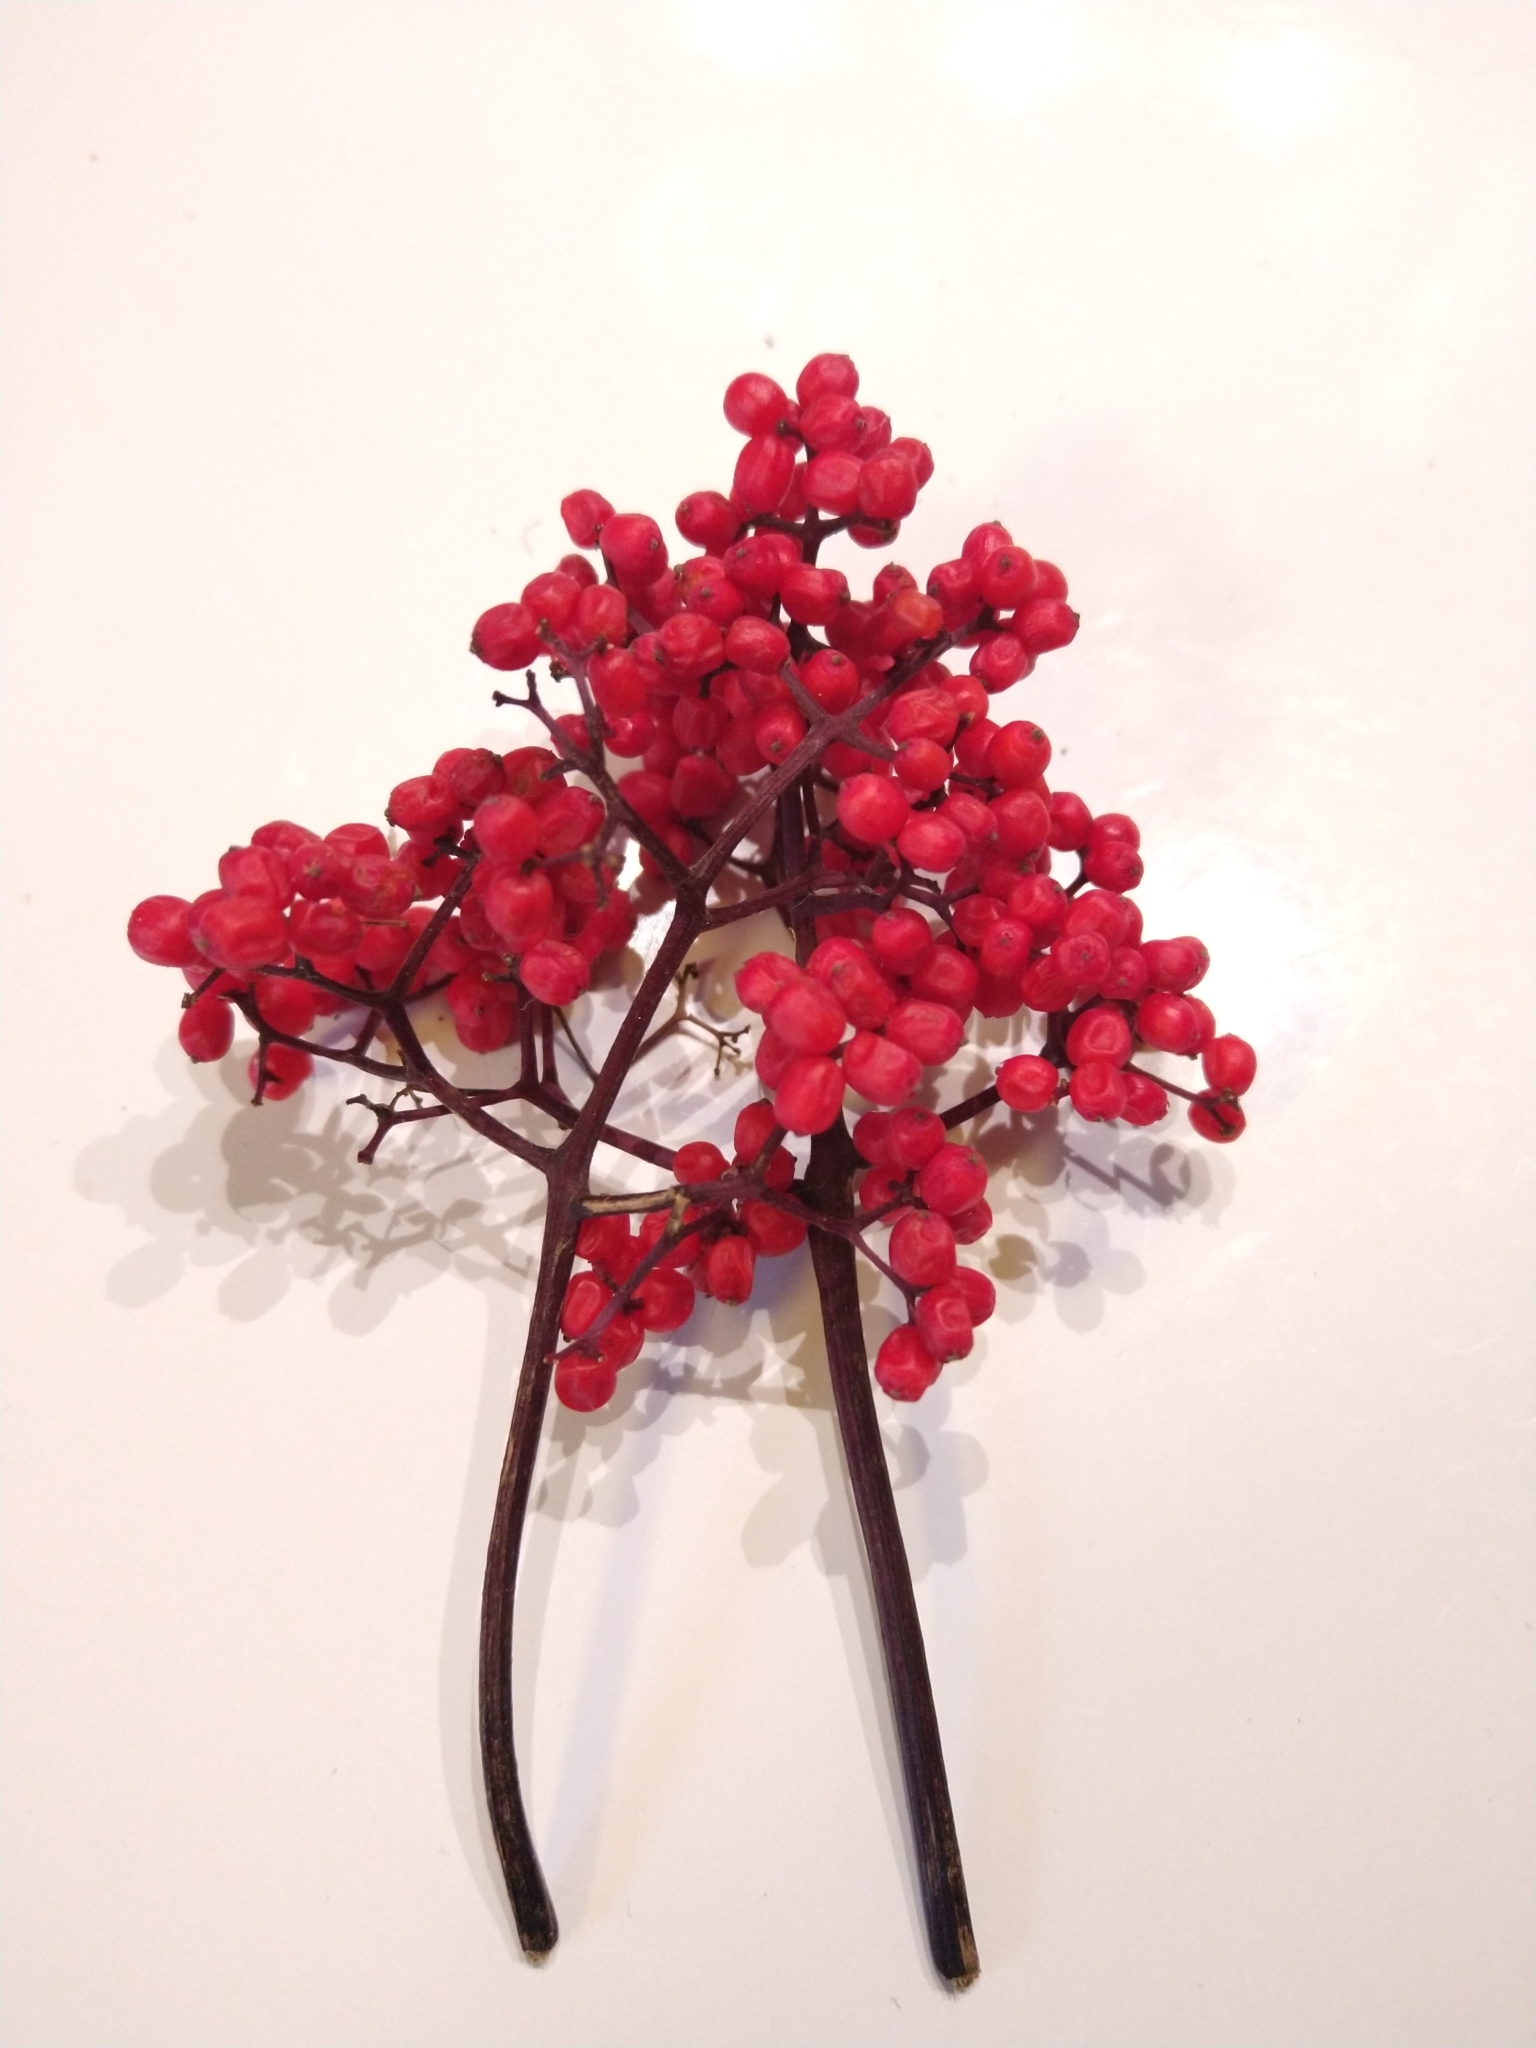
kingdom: Plantae
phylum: Tracheophyta
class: Magnoliopsida
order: Dipsacales
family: Viburnaceae
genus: Sambucus
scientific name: Sambucus racemosa
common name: Red-berried elder
